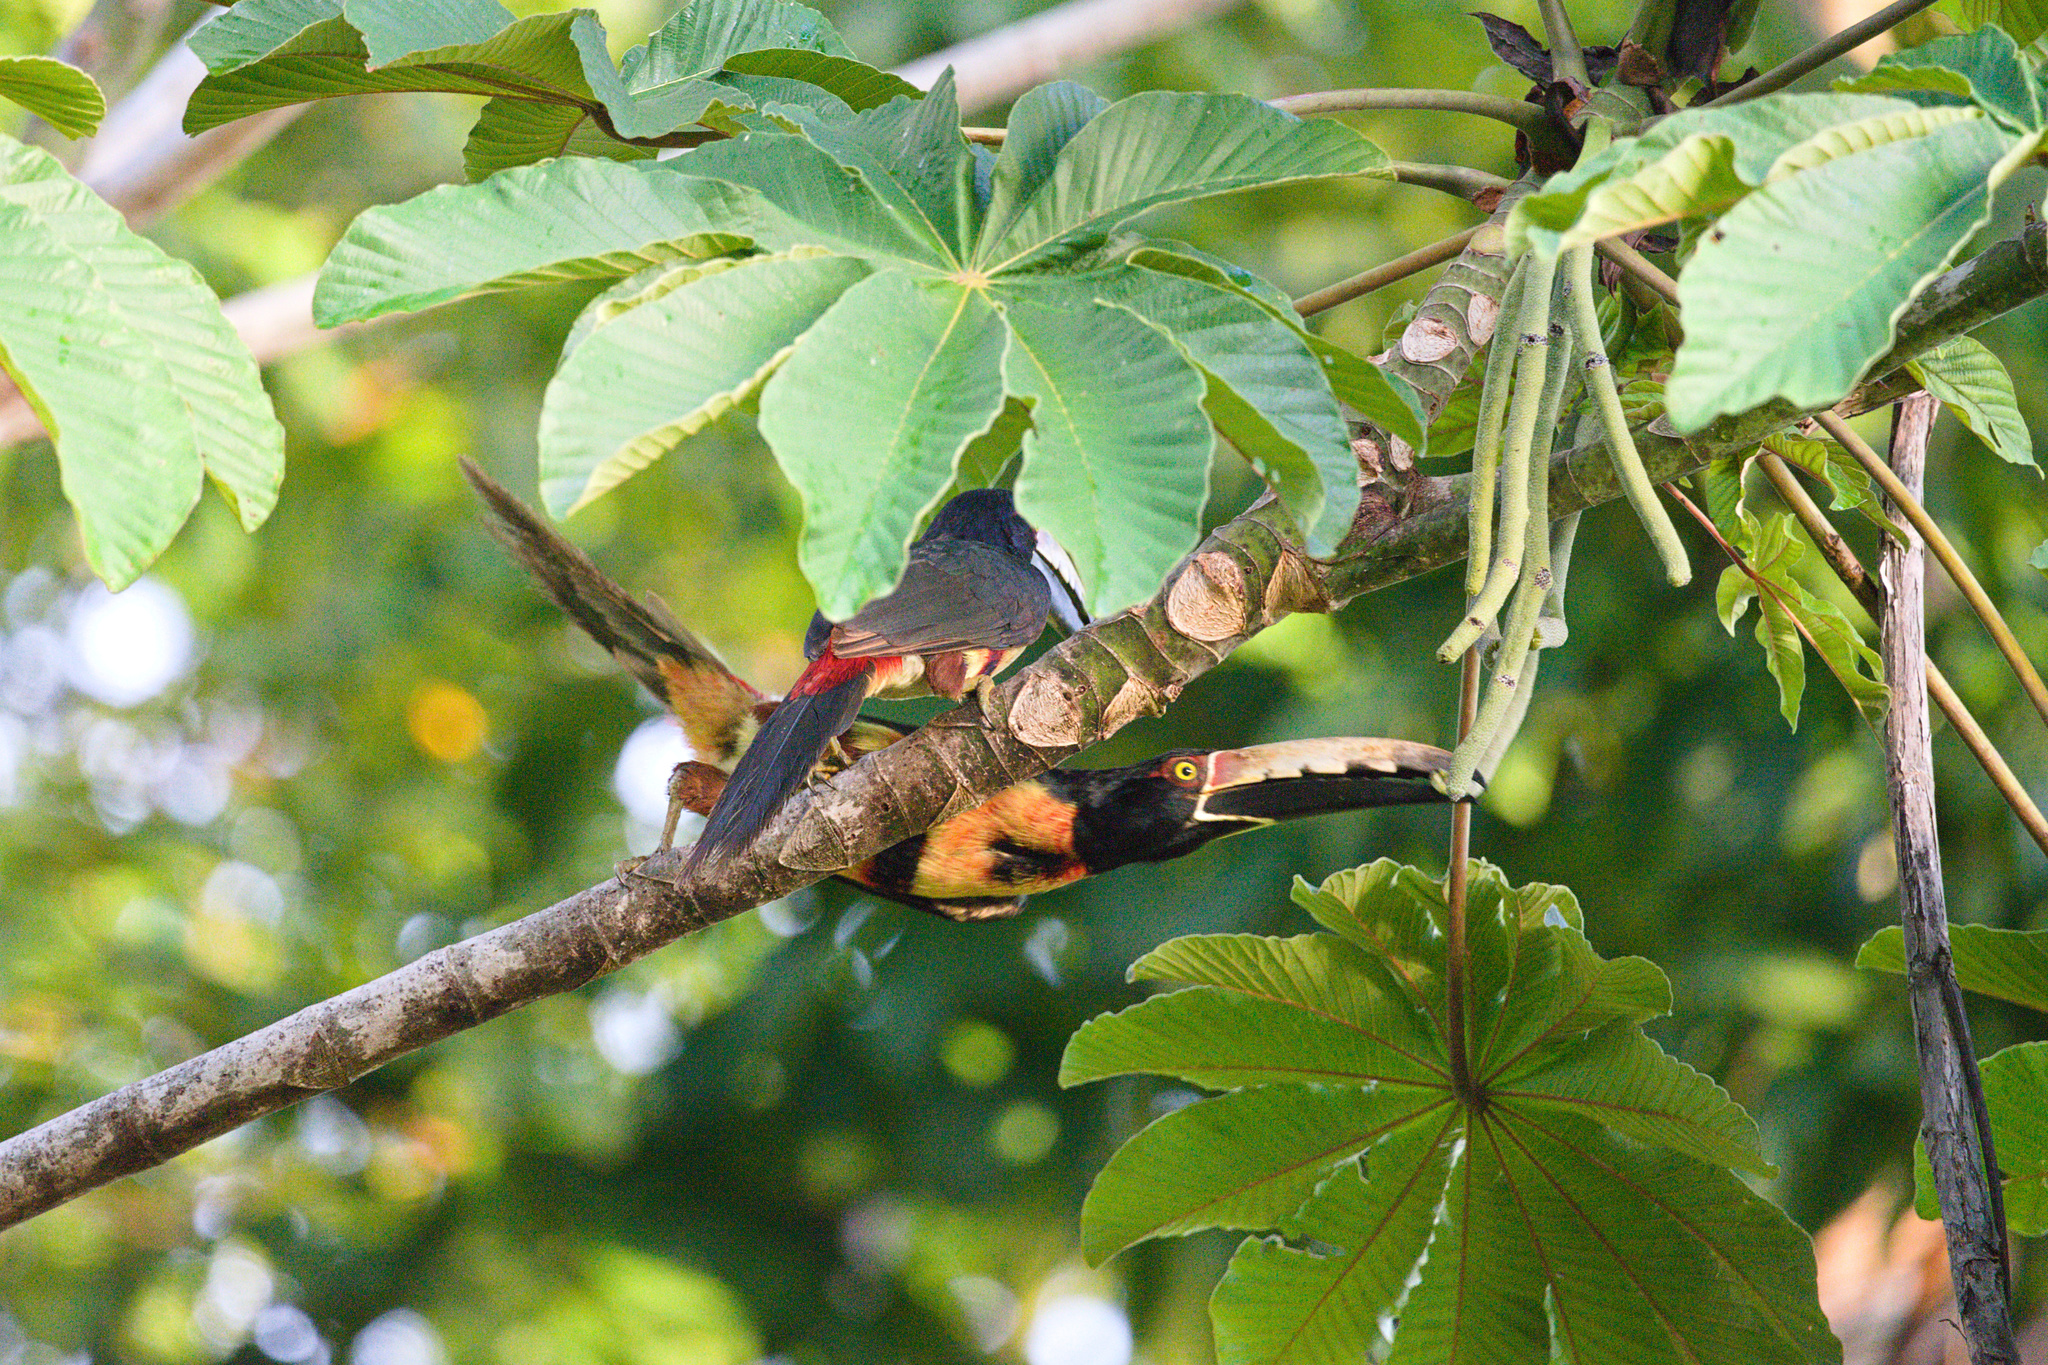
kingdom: Animalia
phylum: Chordata
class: Aves
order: Piciformes
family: Ramphastidae
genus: Pteroglossus
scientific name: Pteroglossus torquatus
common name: Collared aracari
